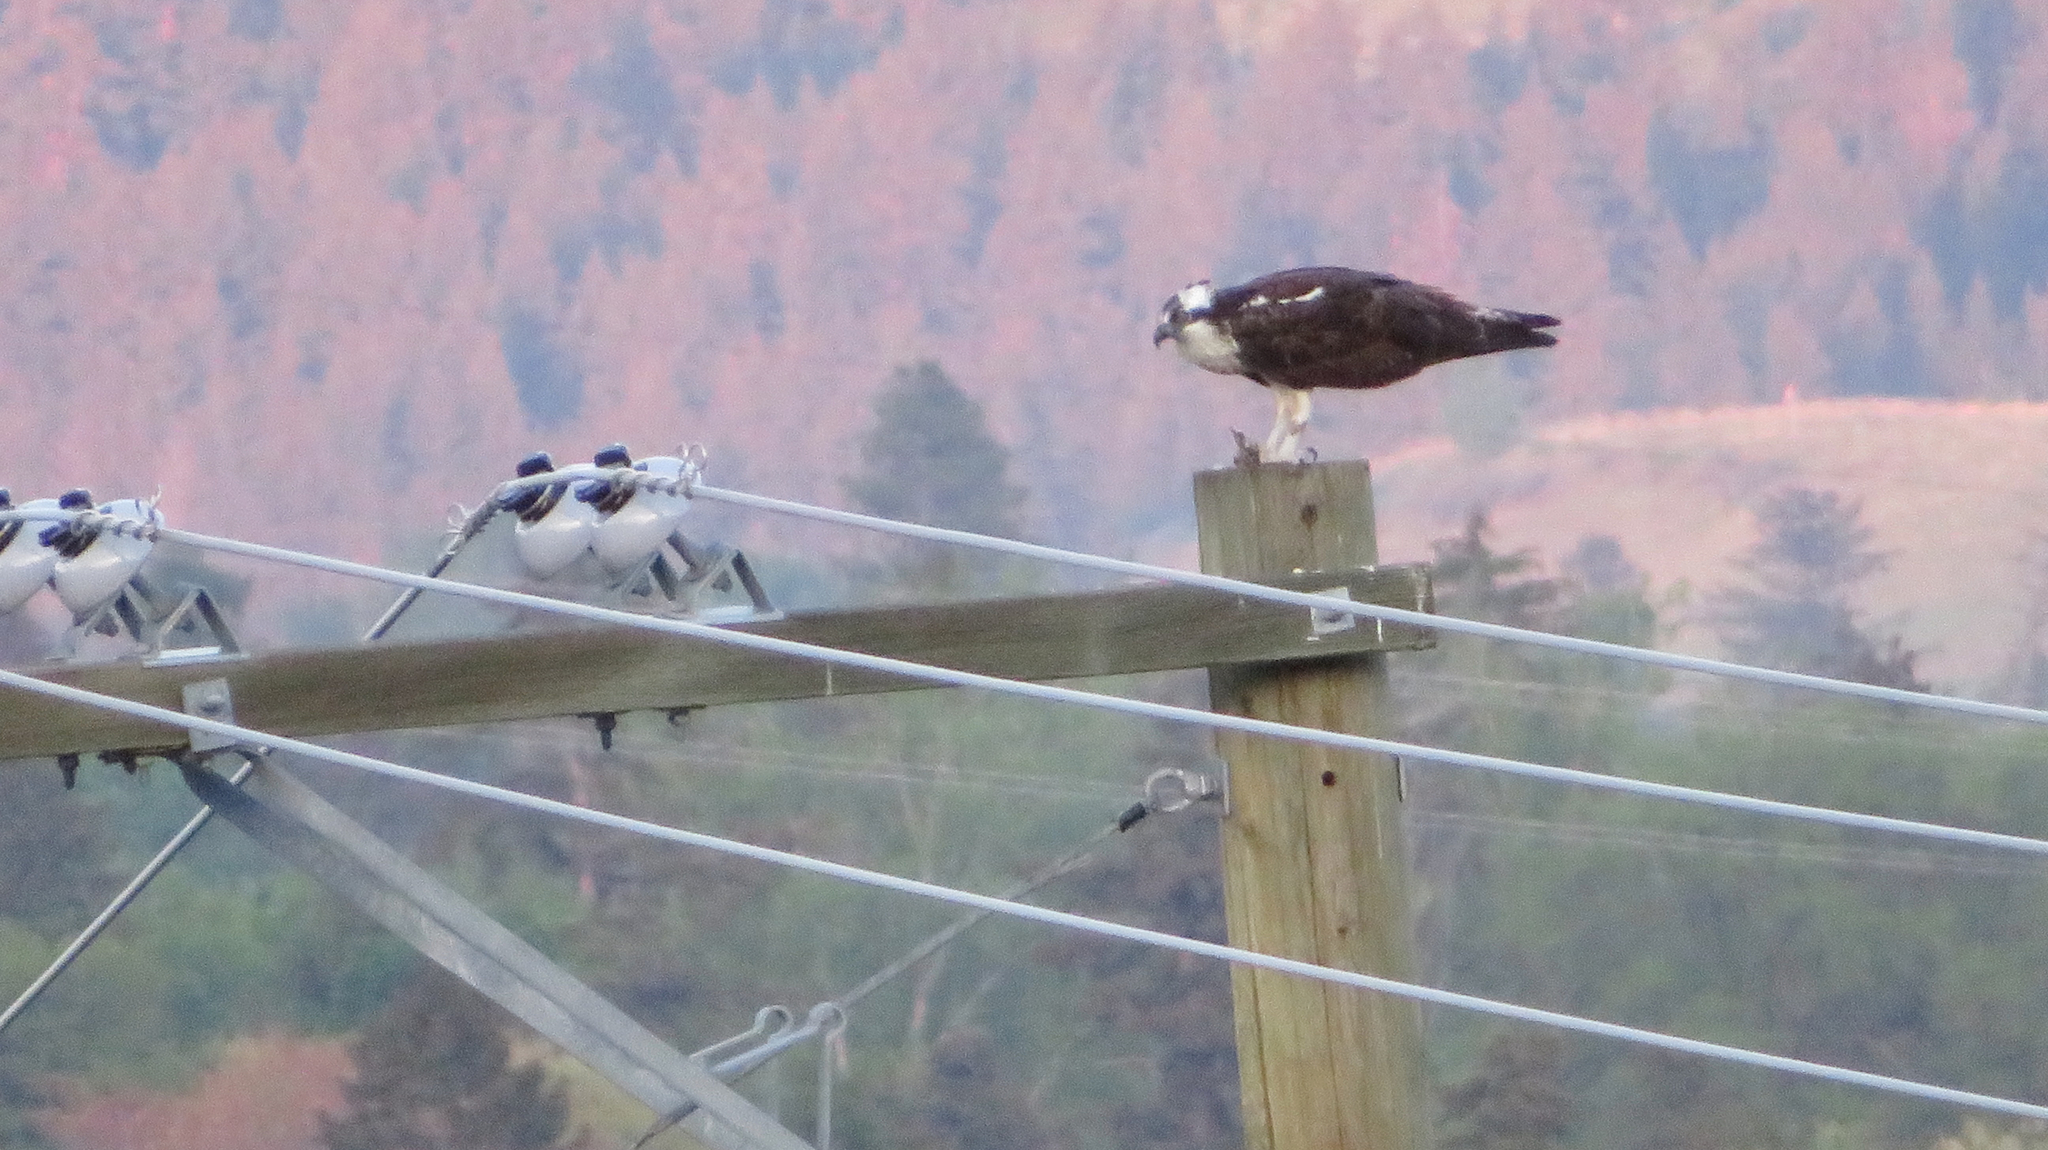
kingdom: Animalia
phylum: Chordata
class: Aves
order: Accipitriformes
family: Pandionidae
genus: Pandion
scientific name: Pandion haliaetus
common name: Osprey
